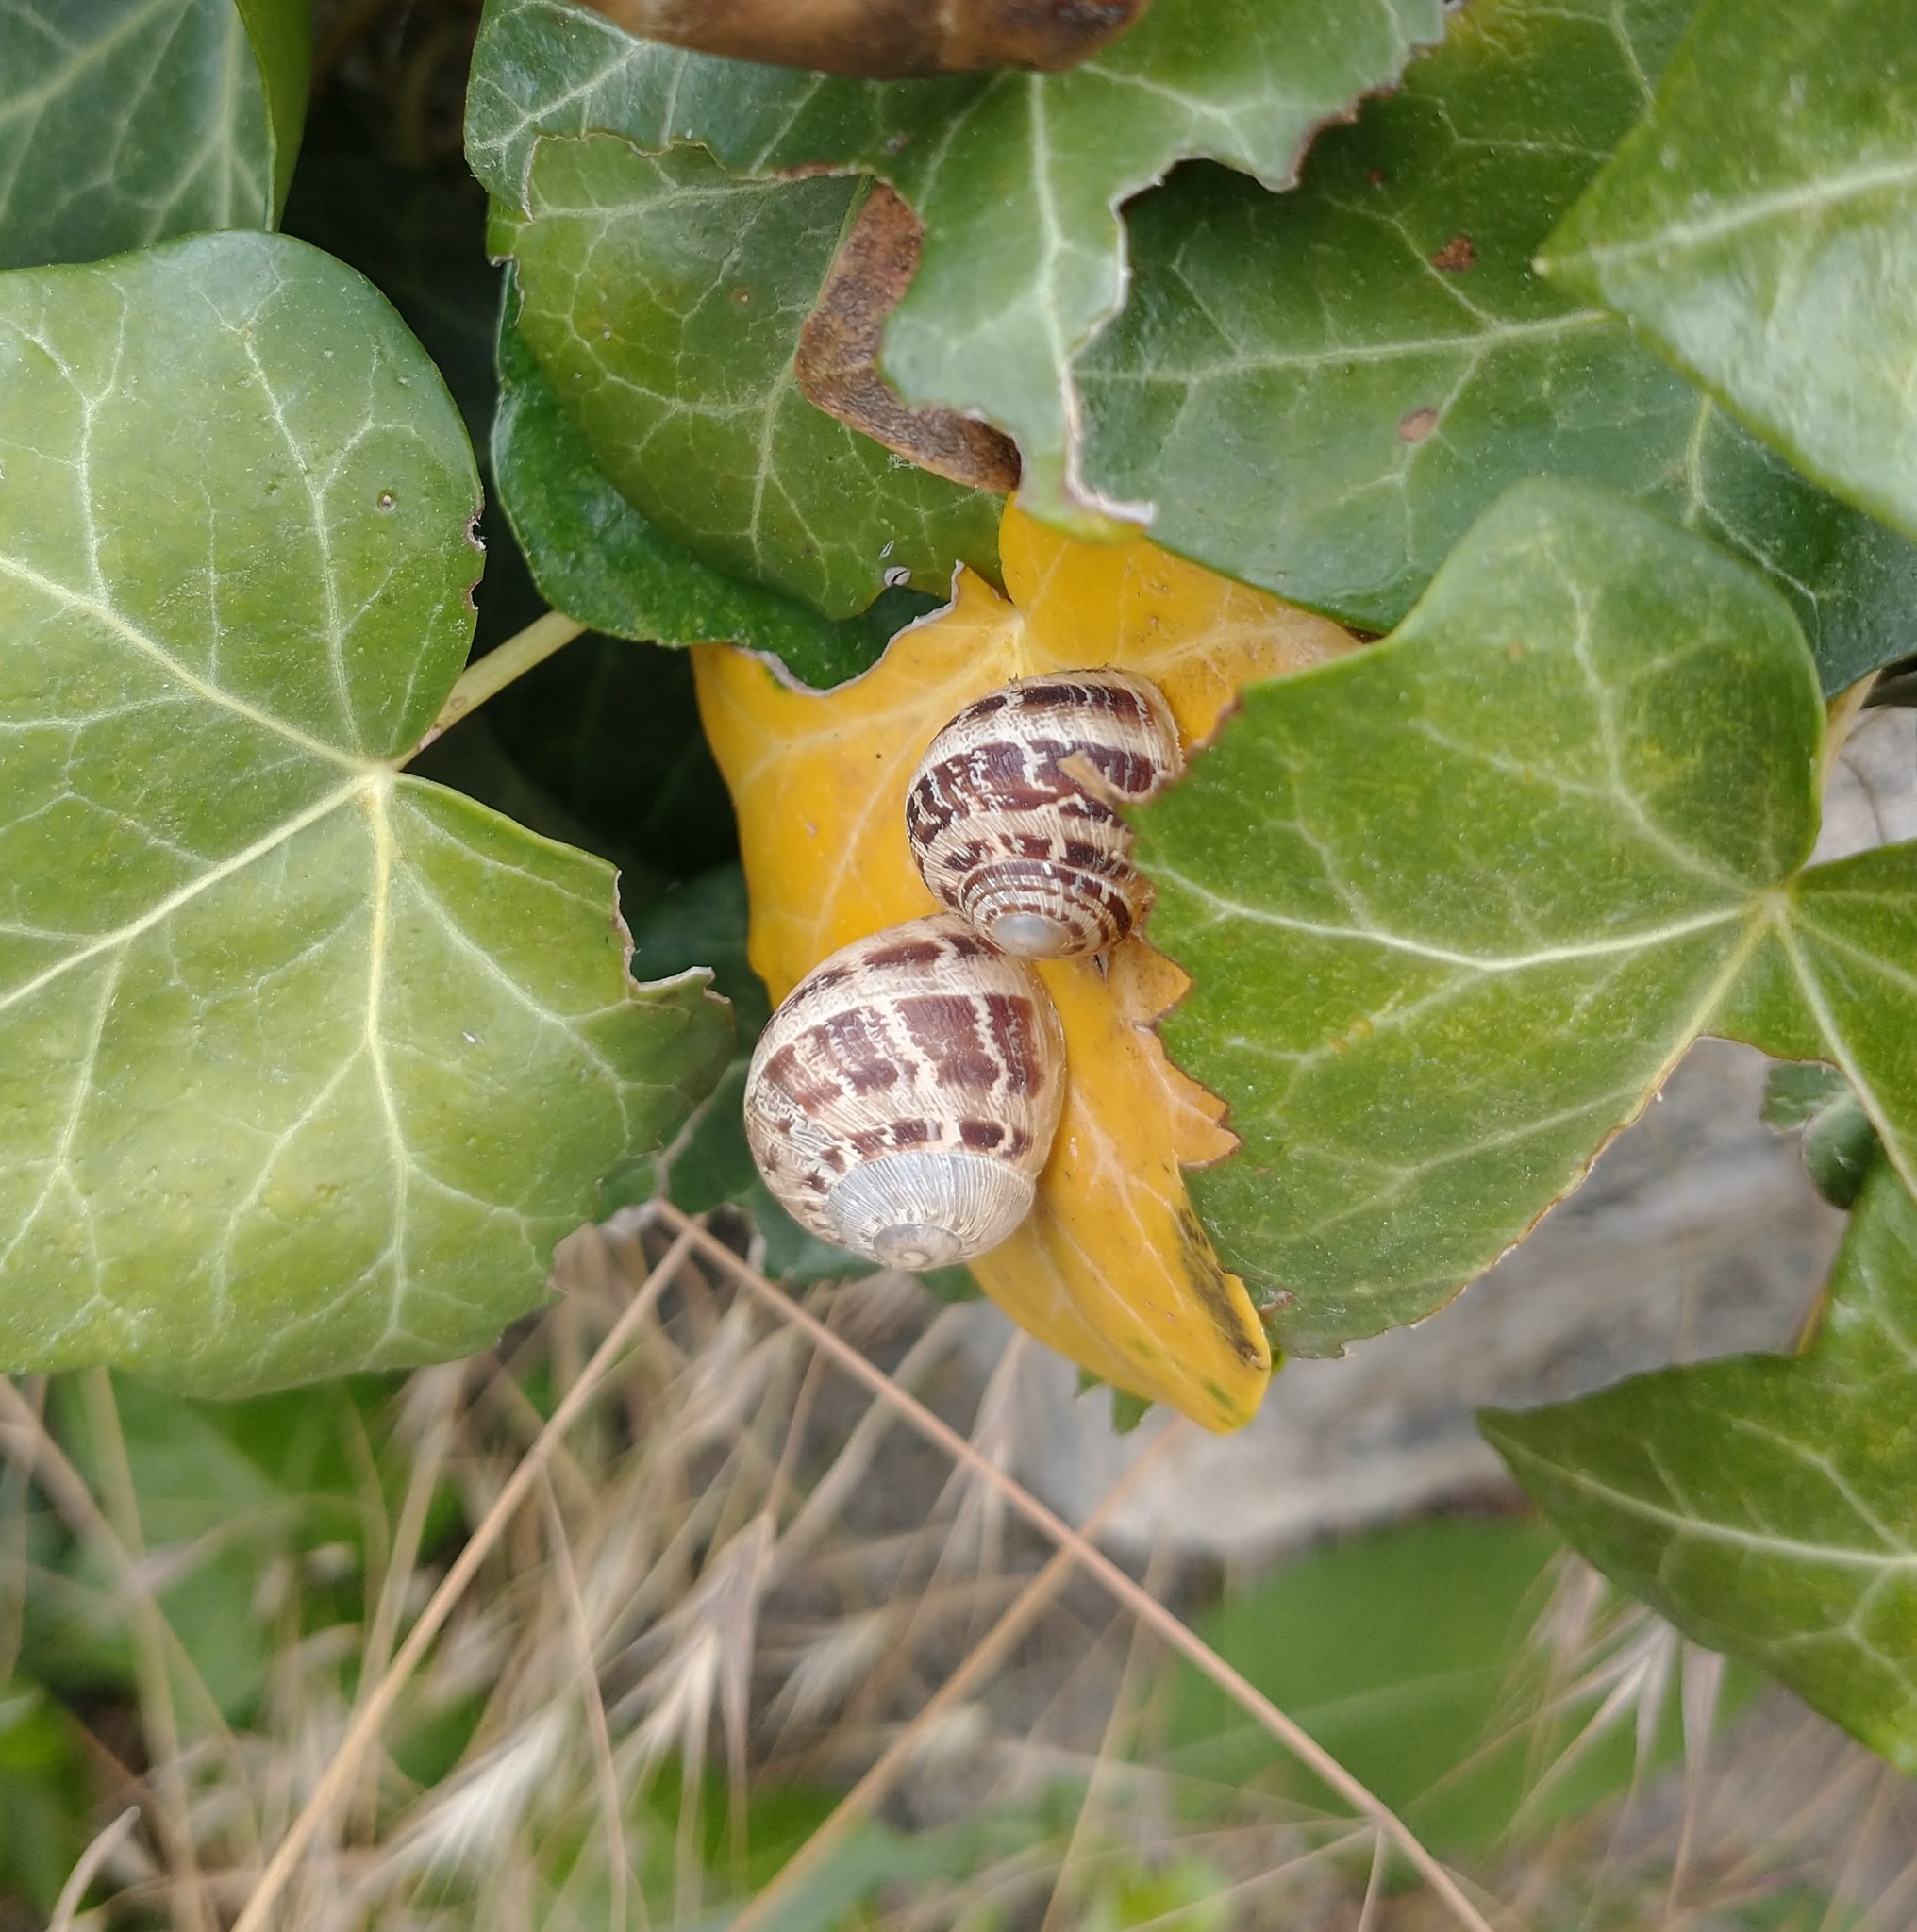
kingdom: Animalia
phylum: Mollusca
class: Gastropoda
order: Stylommatophora
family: Helicidae
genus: Cornu
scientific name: Cornu aspersum
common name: Brown garden snail
